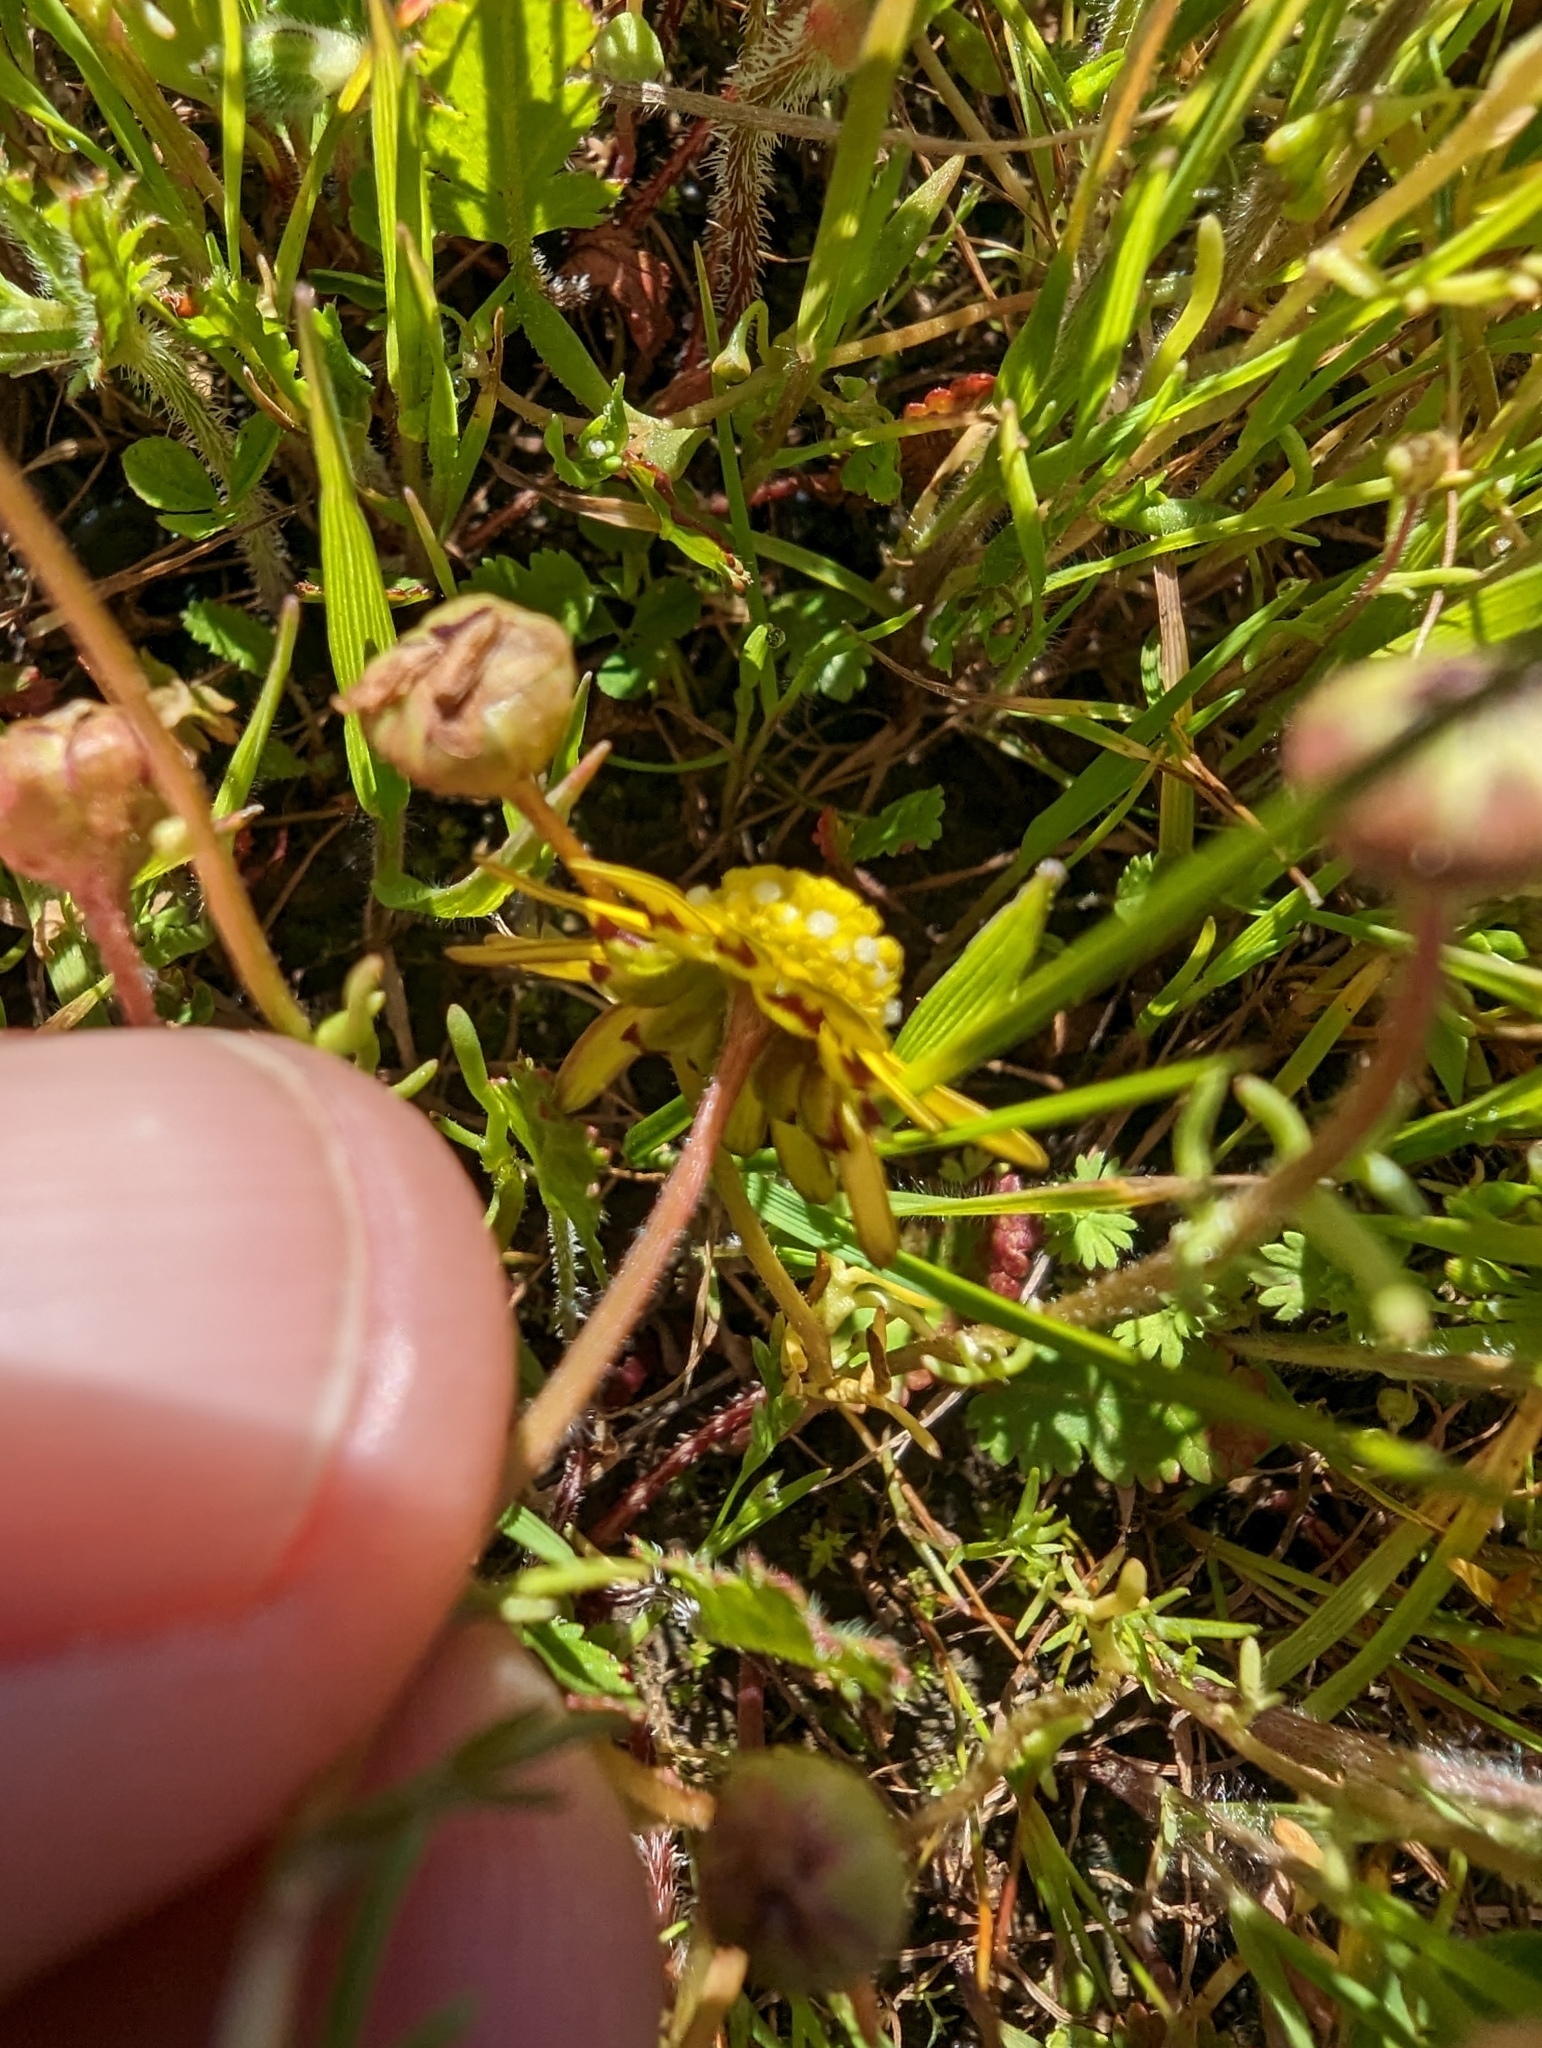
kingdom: Plantae
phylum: Tracheophyta
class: Magnoliopsida
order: Asterales
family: Asteraceae
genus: Blennosperma
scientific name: Blennosperma nanum
